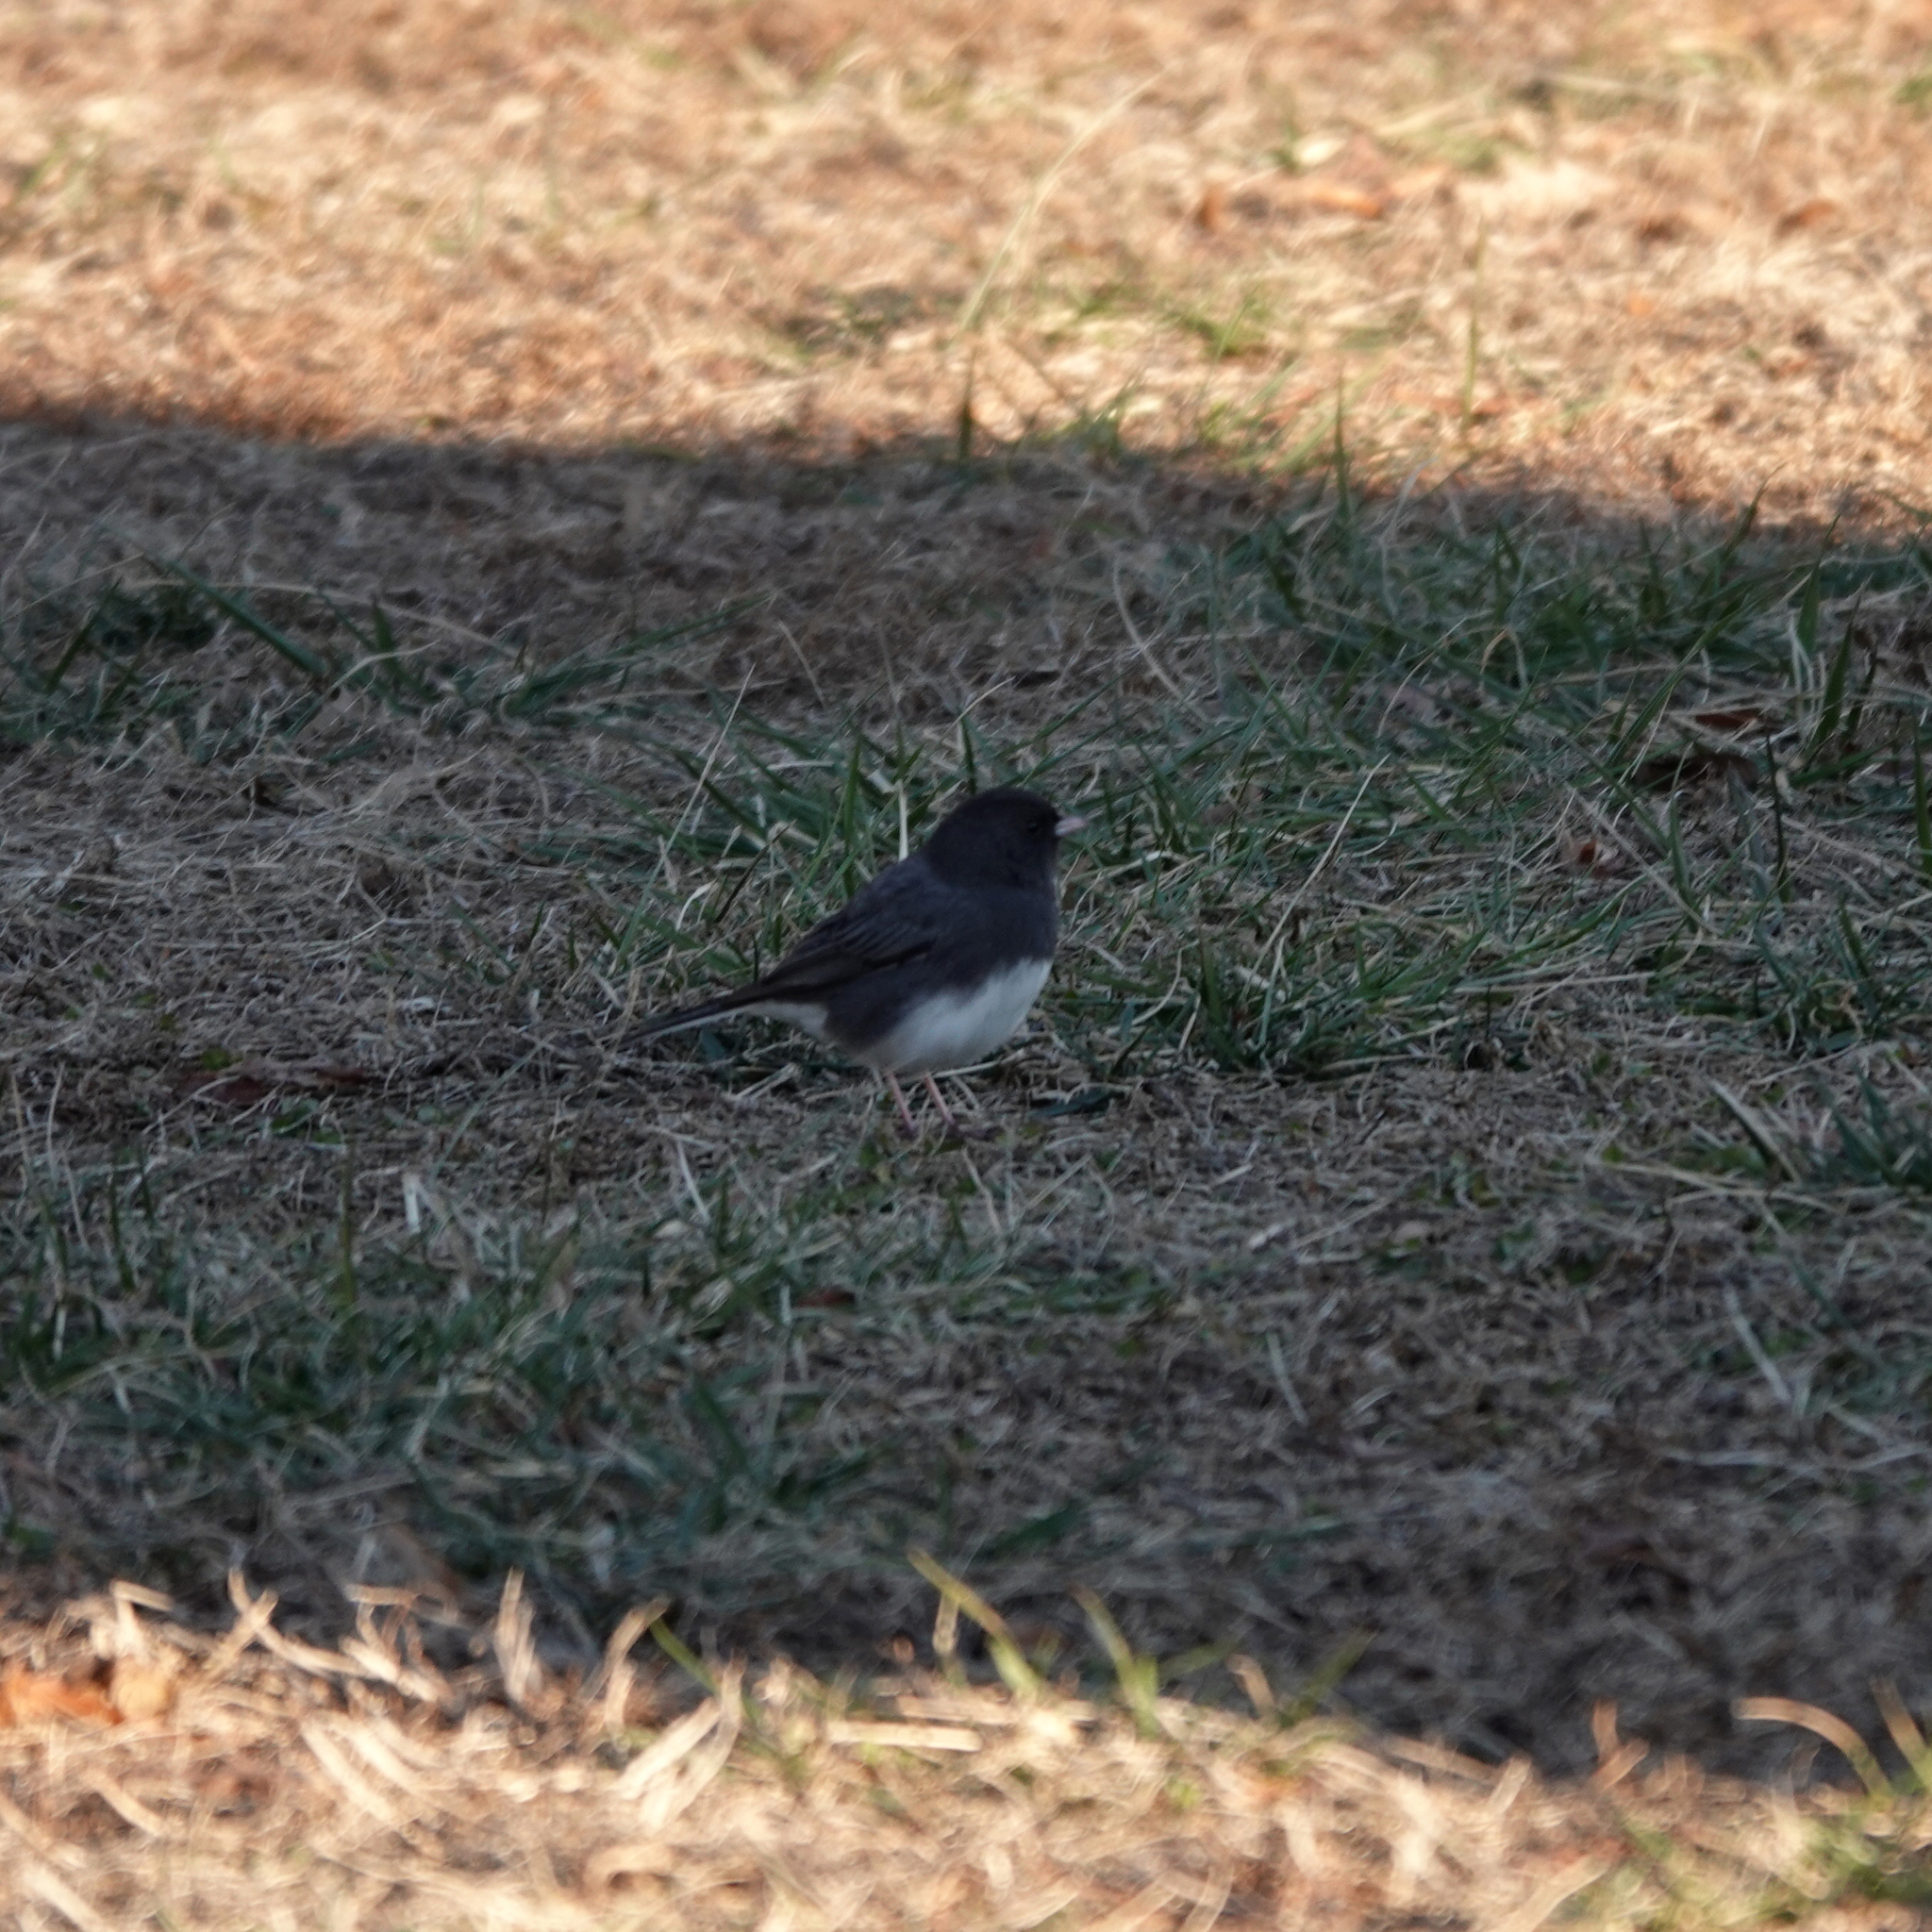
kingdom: Animalia
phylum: Chordata
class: Aves
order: Passeriformes
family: Passerellidae
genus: Junco
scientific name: Junco hyemalis
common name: Dark-eyed junco
